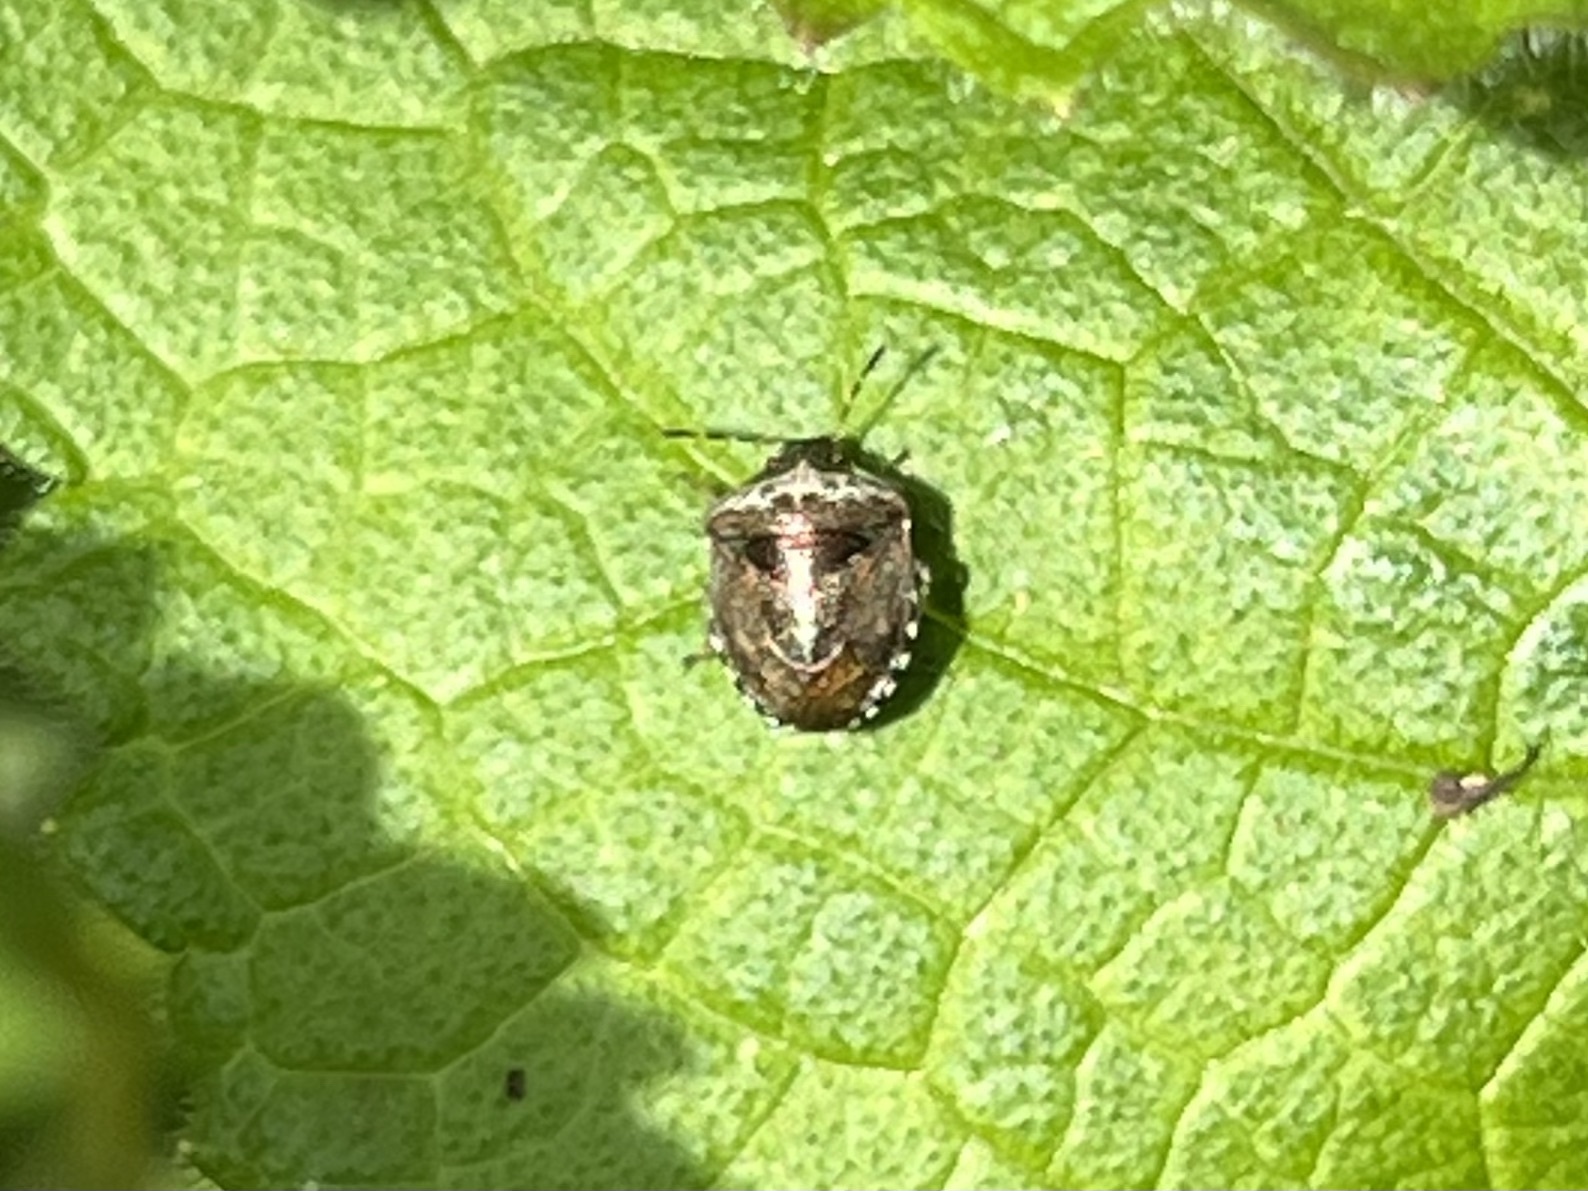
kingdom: Animalia
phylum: Arthropoda
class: Insecta
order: Hemiptera
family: Pentatomidae
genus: Eysarcoris
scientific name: Eysarcoris venustissimus
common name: Woundwort shieldbug
